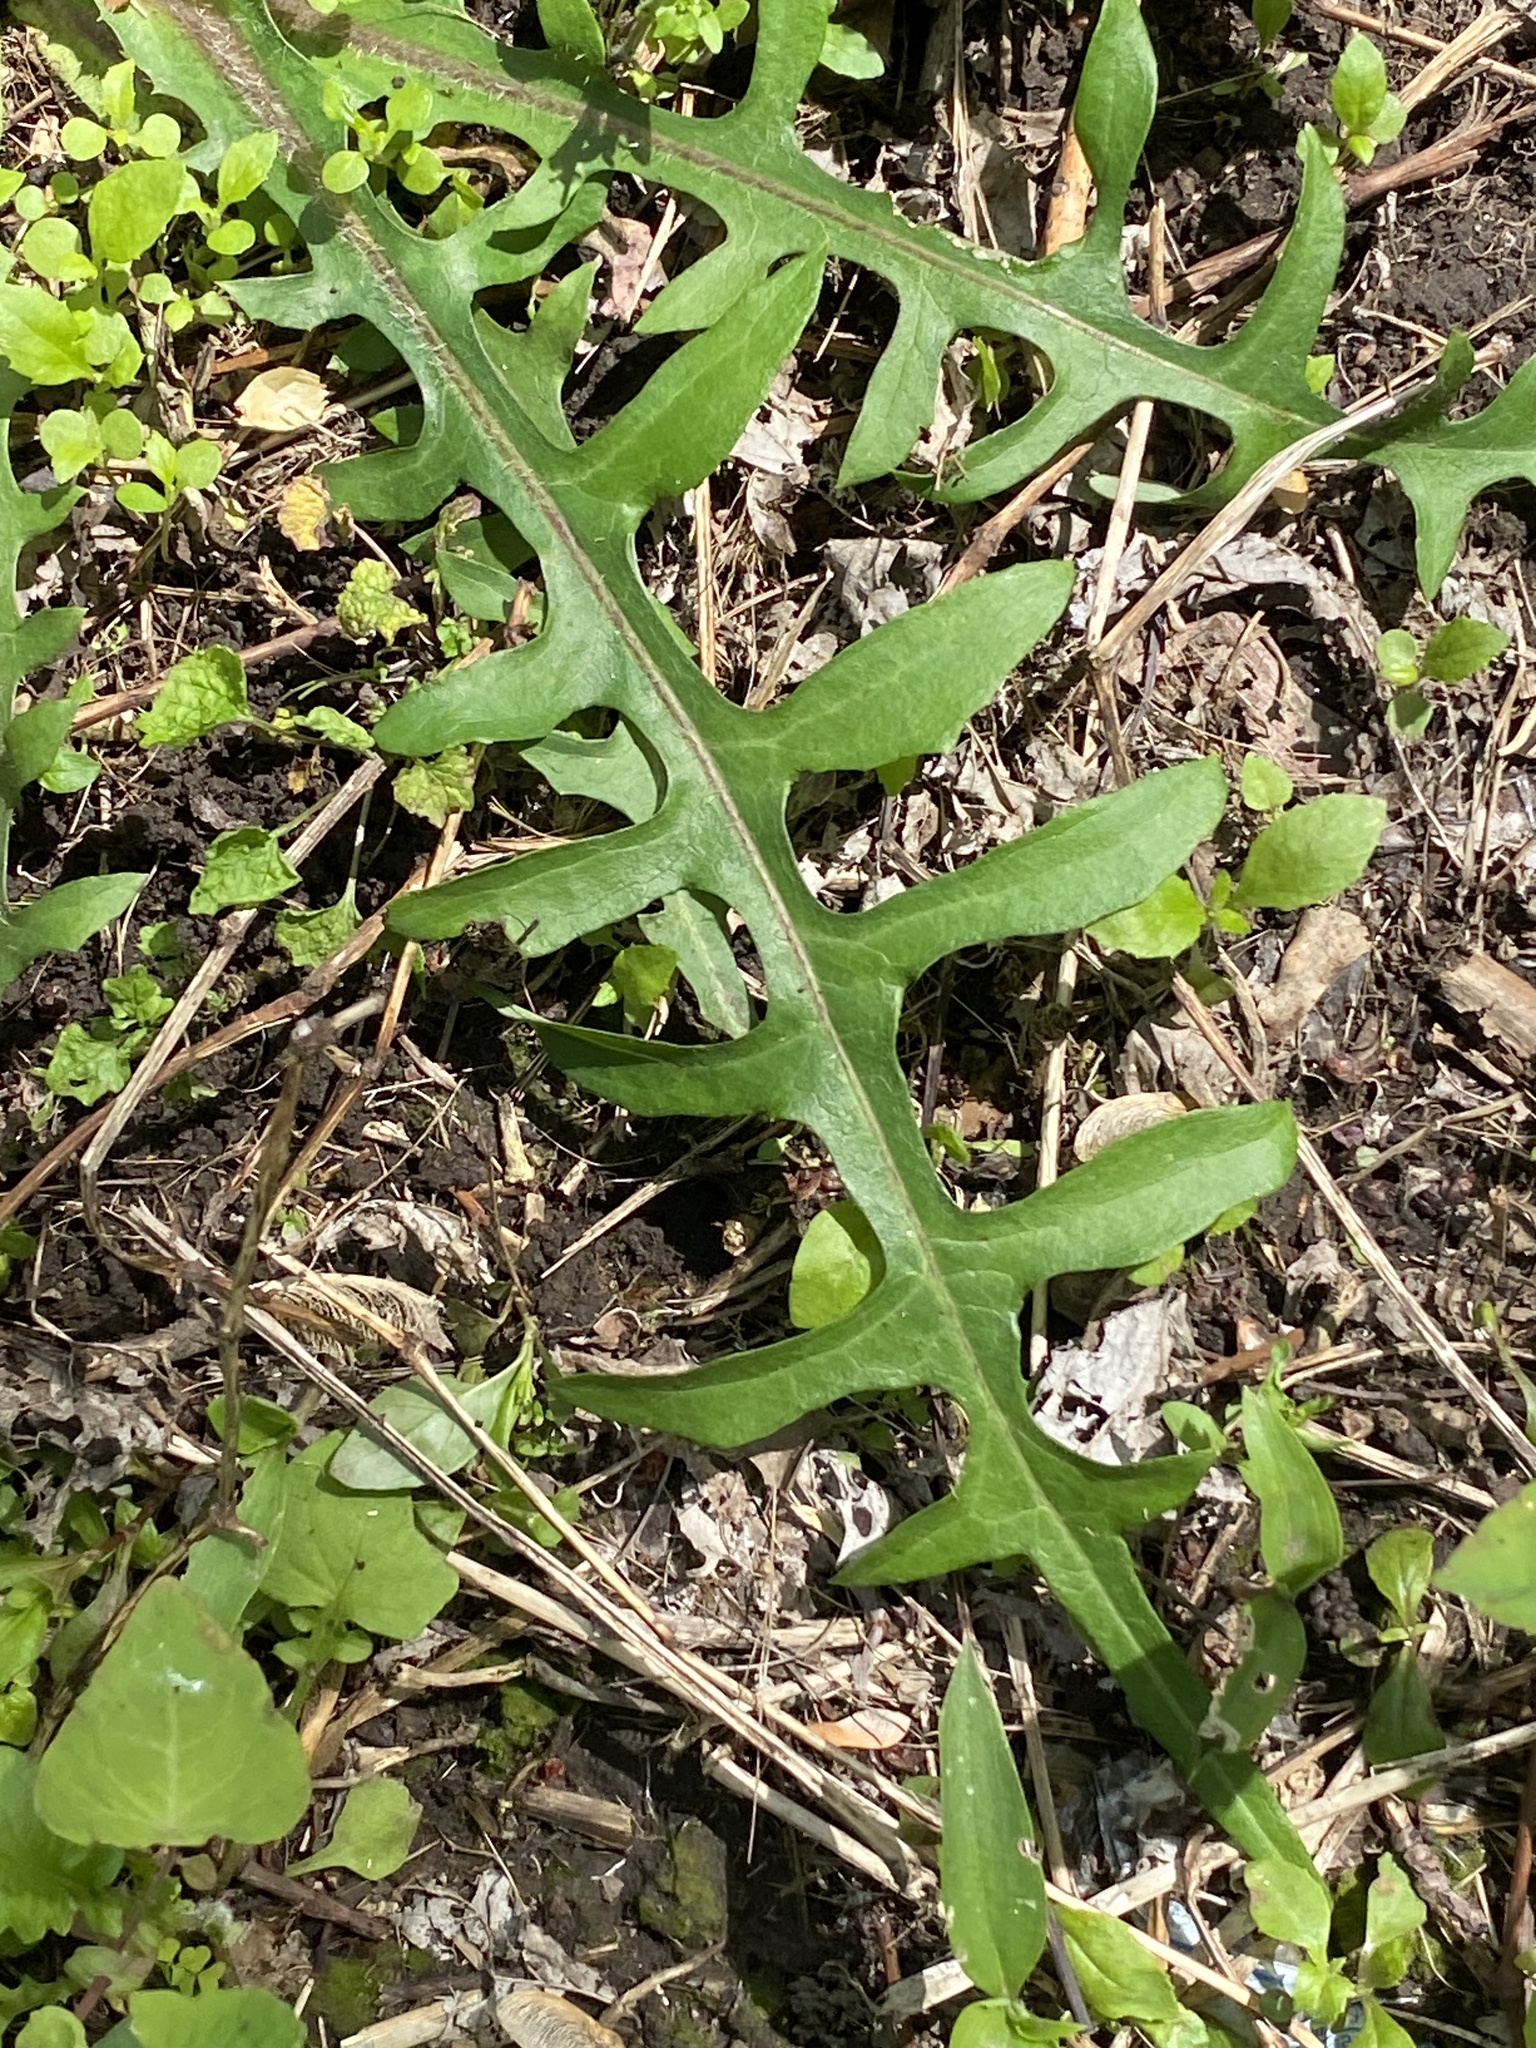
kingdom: Plantae
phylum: Tracheophyta
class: Magnoliopsida
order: Asterales
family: Asteraceae
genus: Lactuca
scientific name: Lactuca canadensis
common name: Canada lettuce
